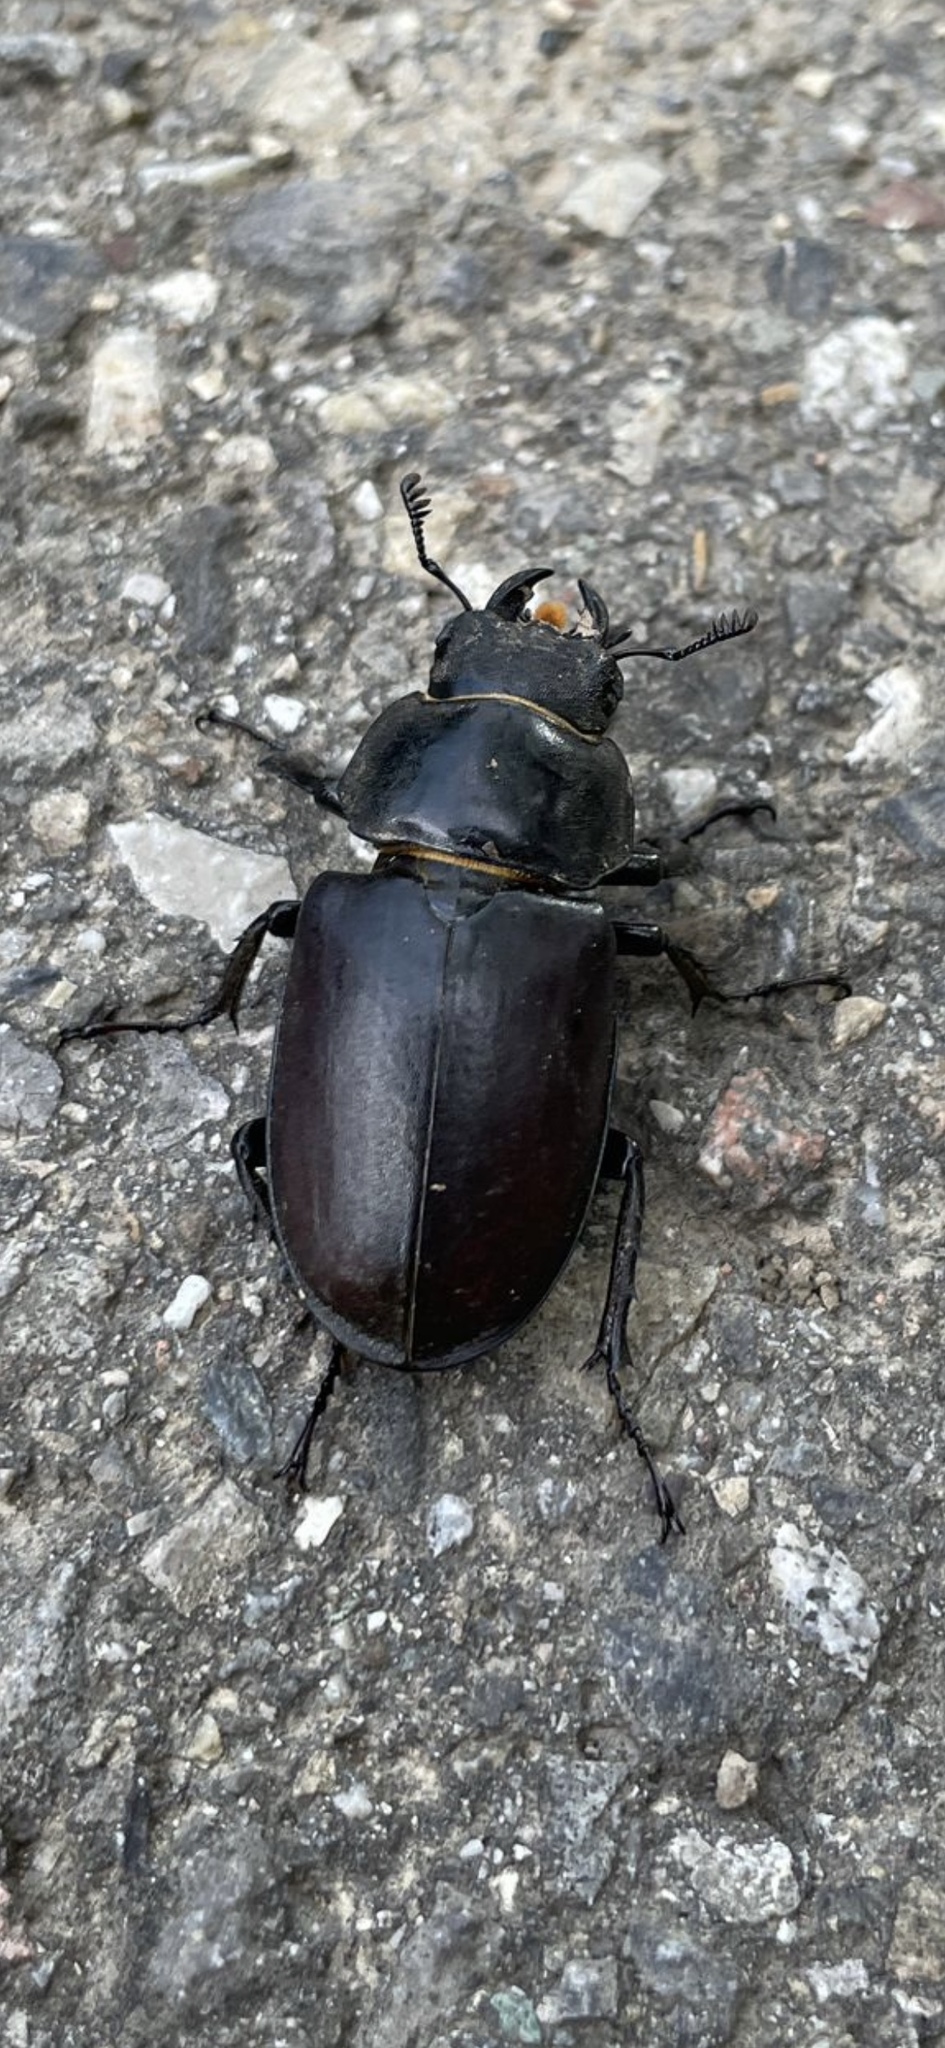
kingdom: Animalia
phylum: Arthropoda
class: Insecta
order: Coleoptera
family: Lucanidae
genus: Lucanus
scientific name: Lucanus cervus
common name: Stag beetle
